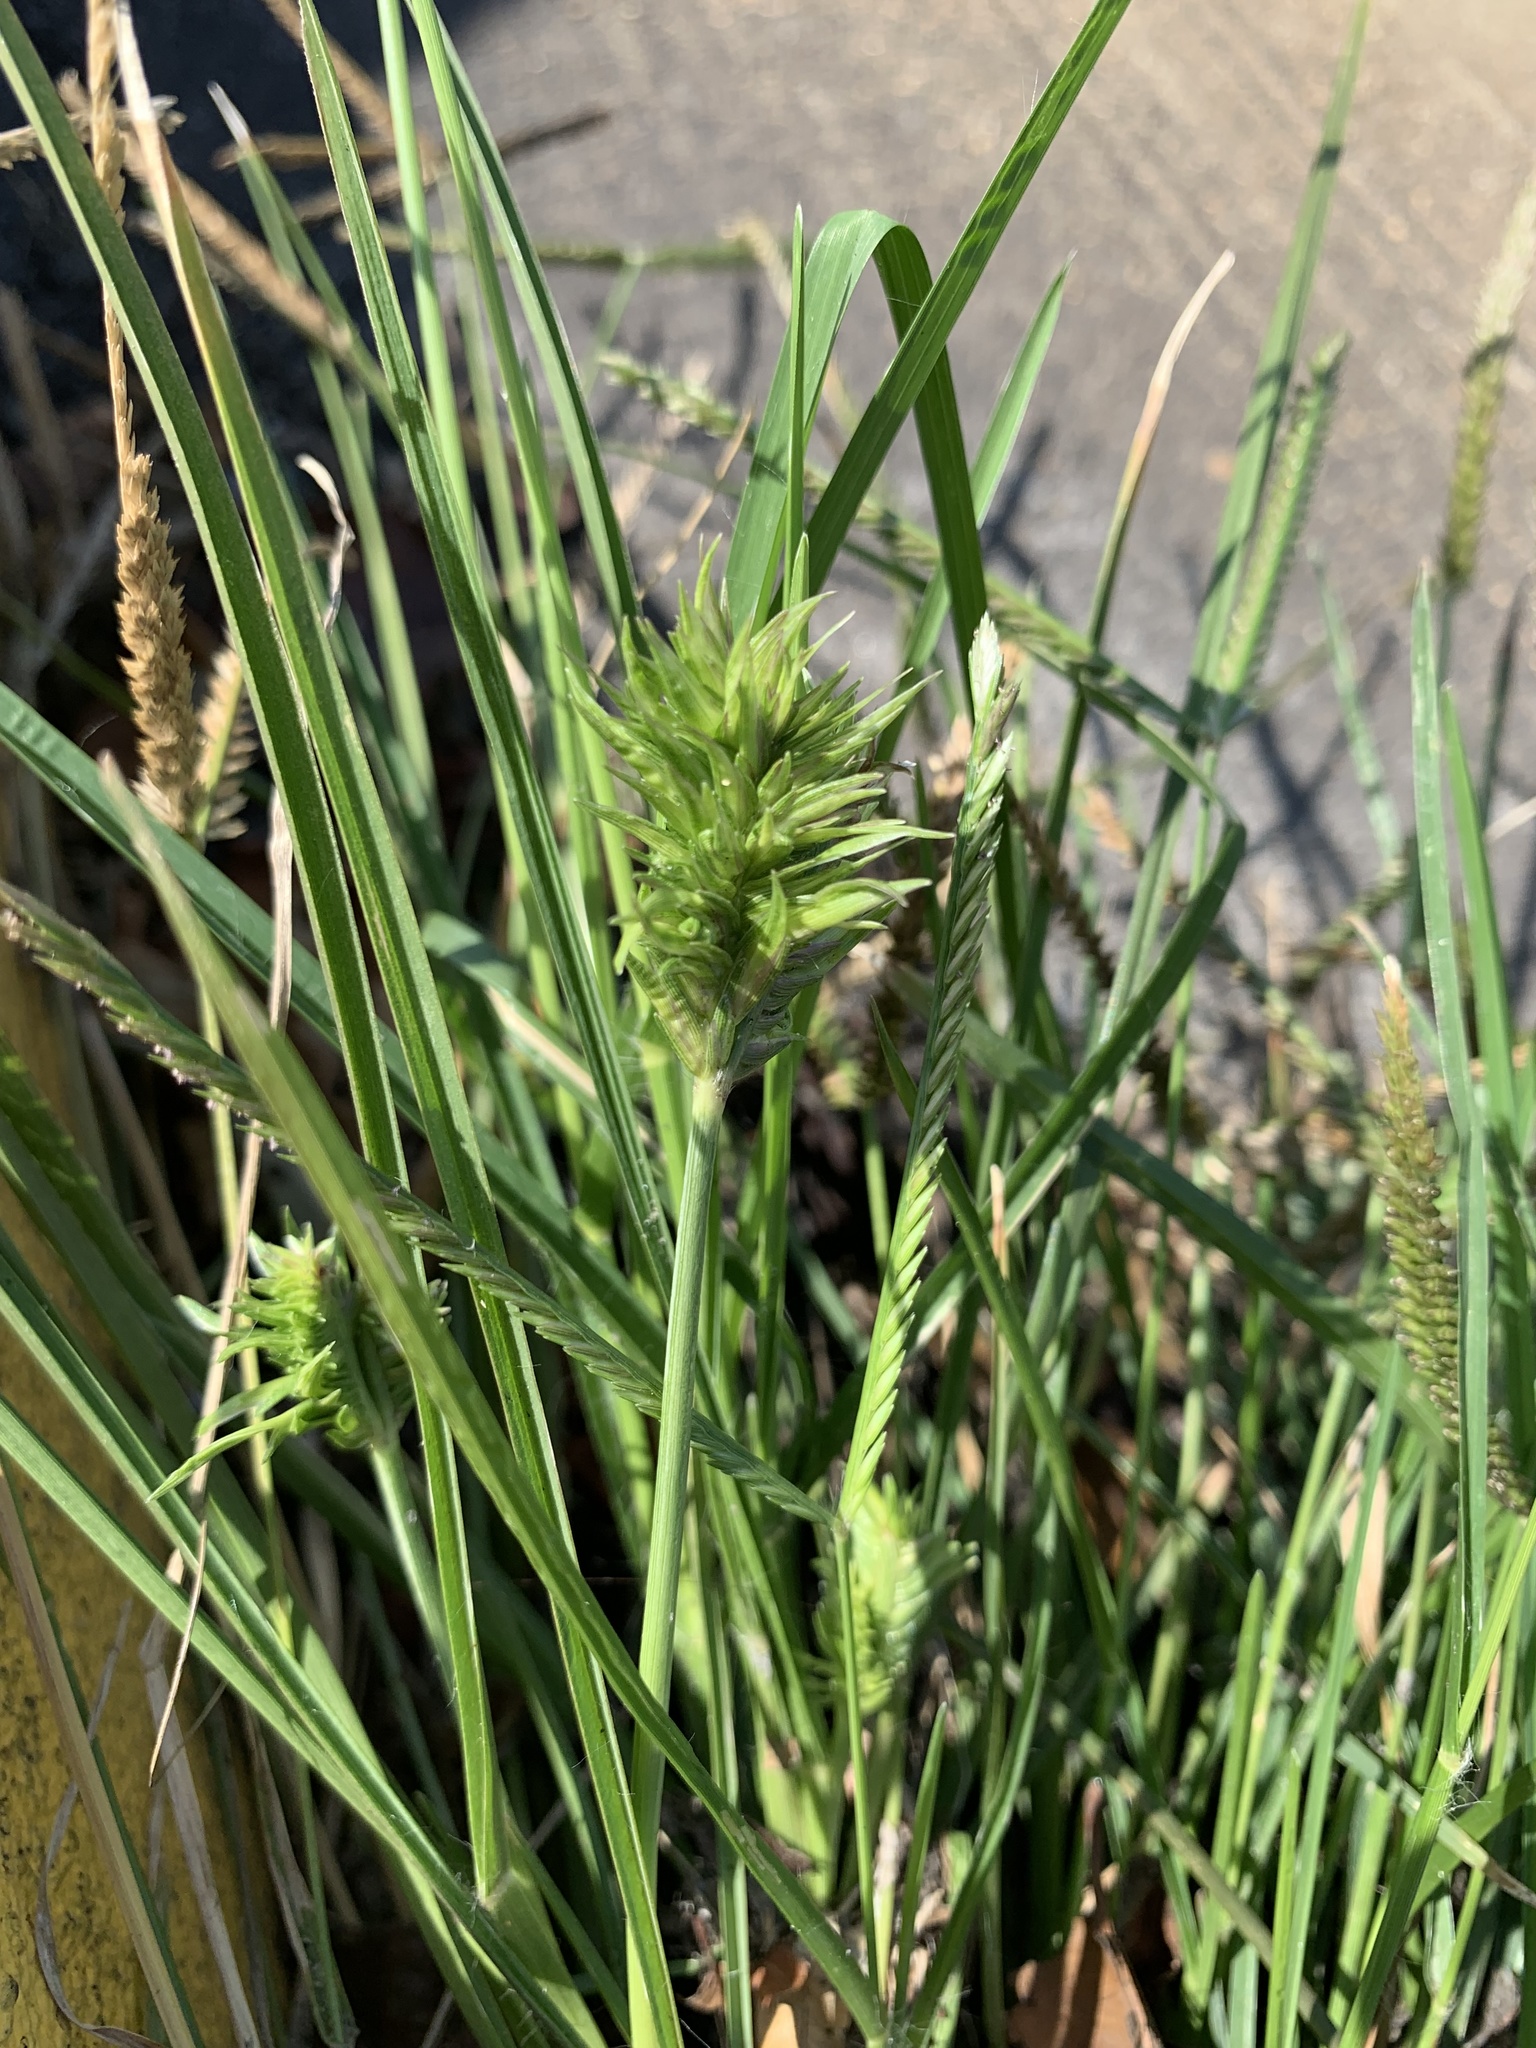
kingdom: Plantae
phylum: Tracheophyta
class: Liliopsida
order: Poales
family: Poaceae
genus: Eleusine
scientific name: Eleusine indica
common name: Yard-grass
